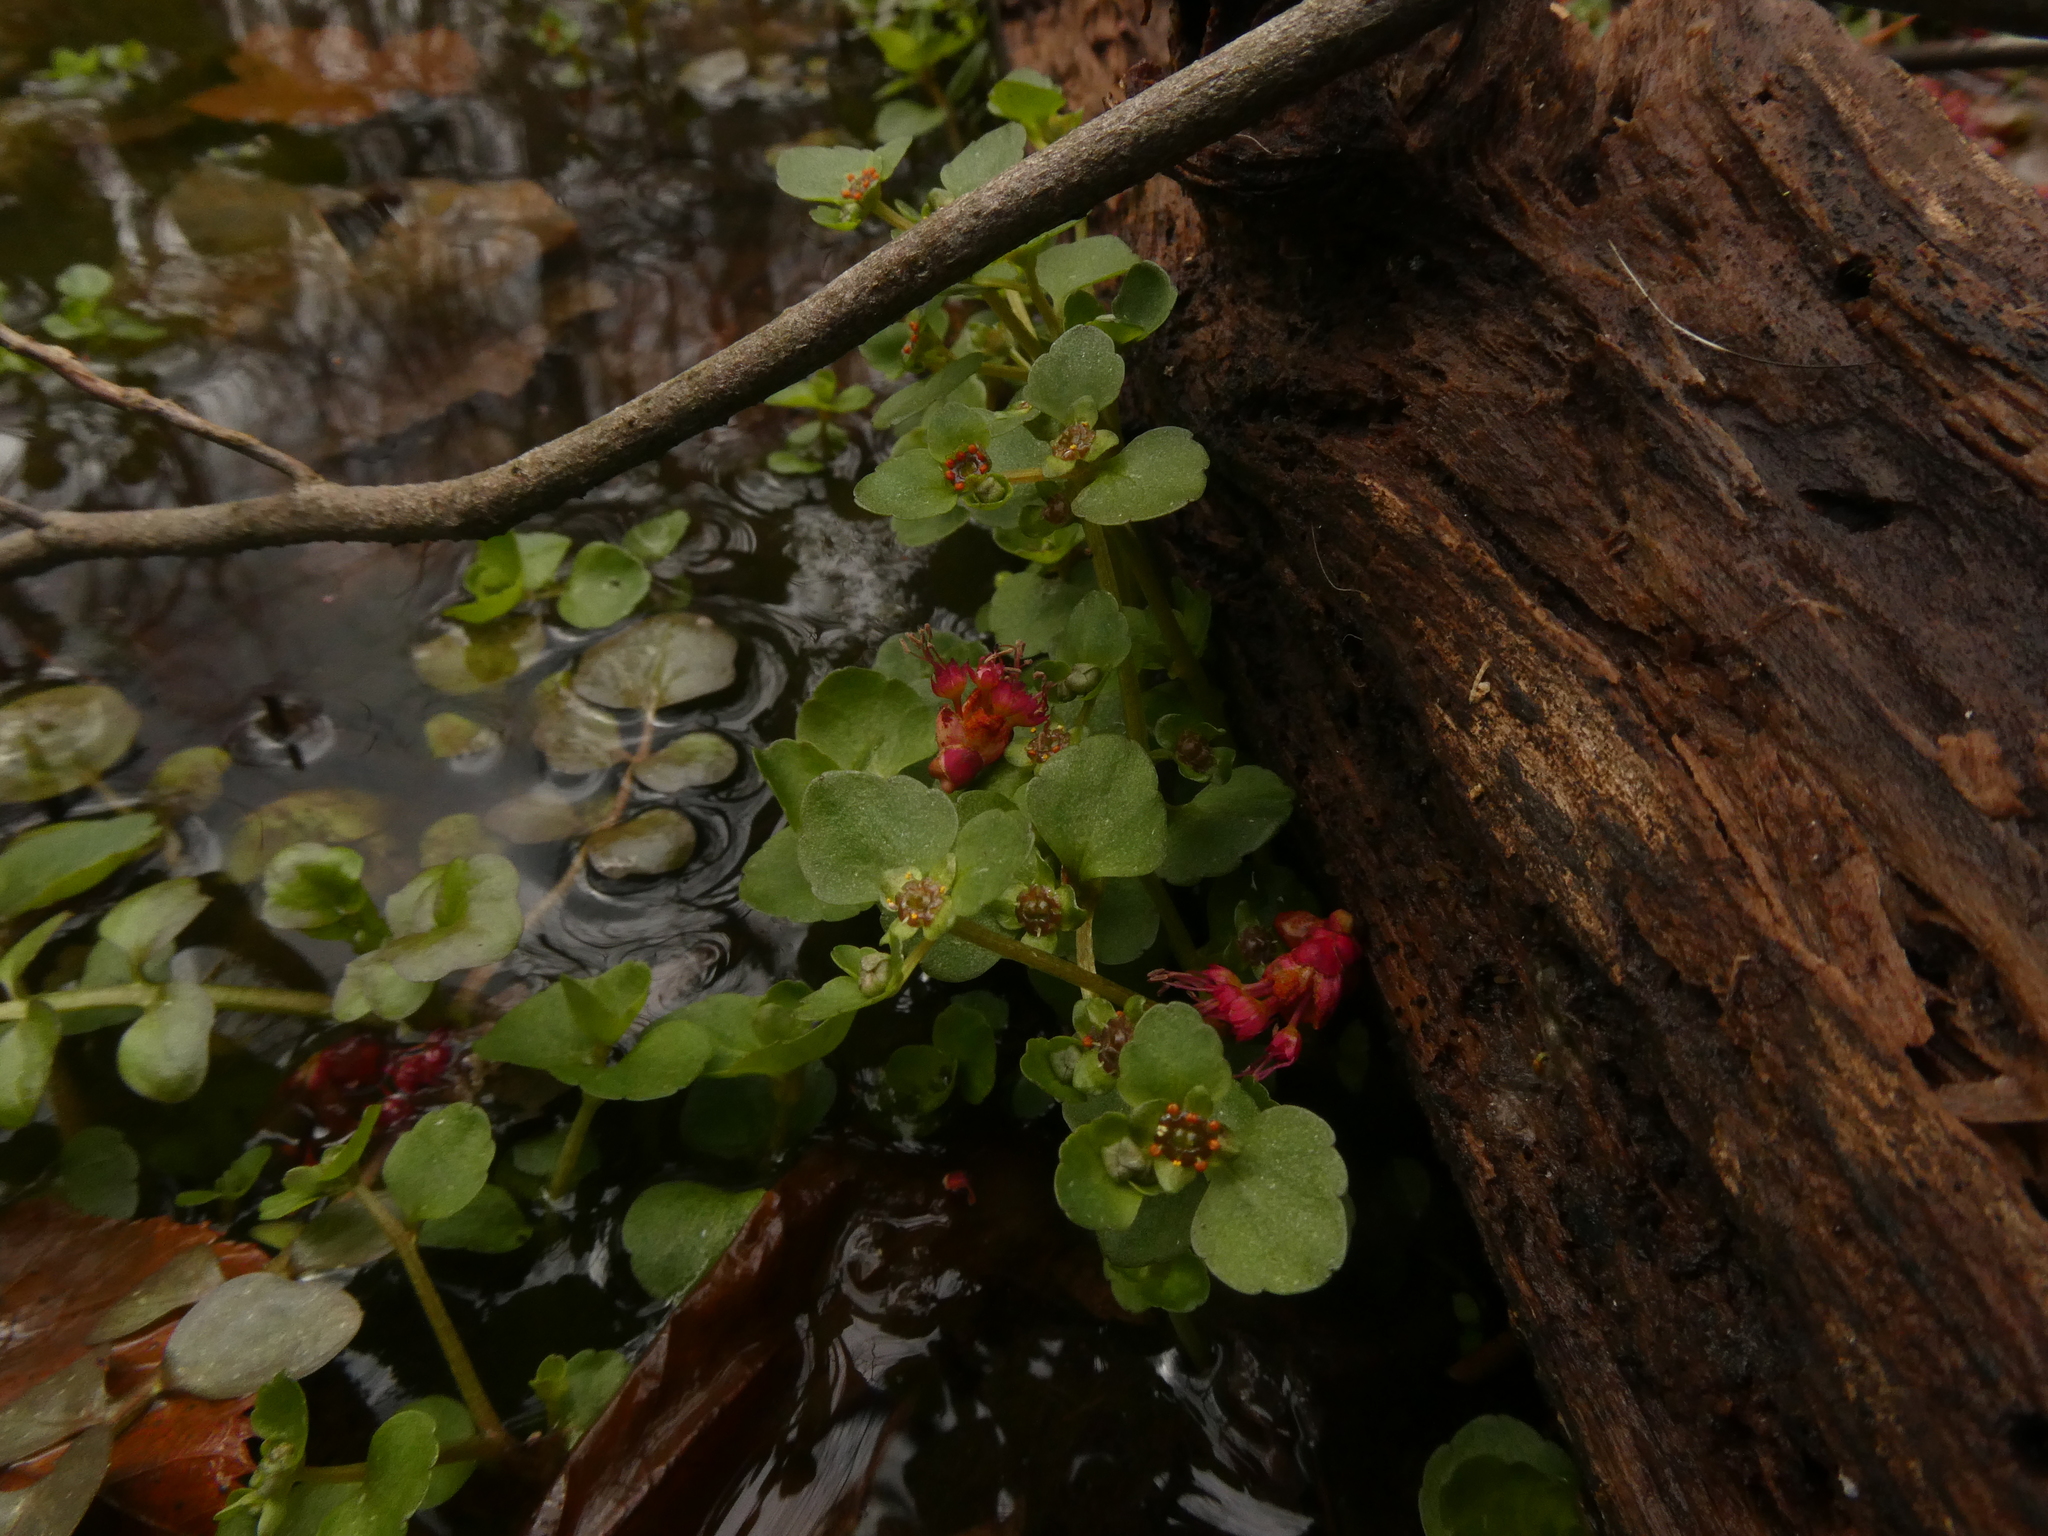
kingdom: Plantae
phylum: Tracheophyta
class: Magnoliopsida
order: Saxifragales
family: Saxifragaceae
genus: Chrysosplenium
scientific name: Chrysosplenium americanum
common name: American golden-saxifrage
